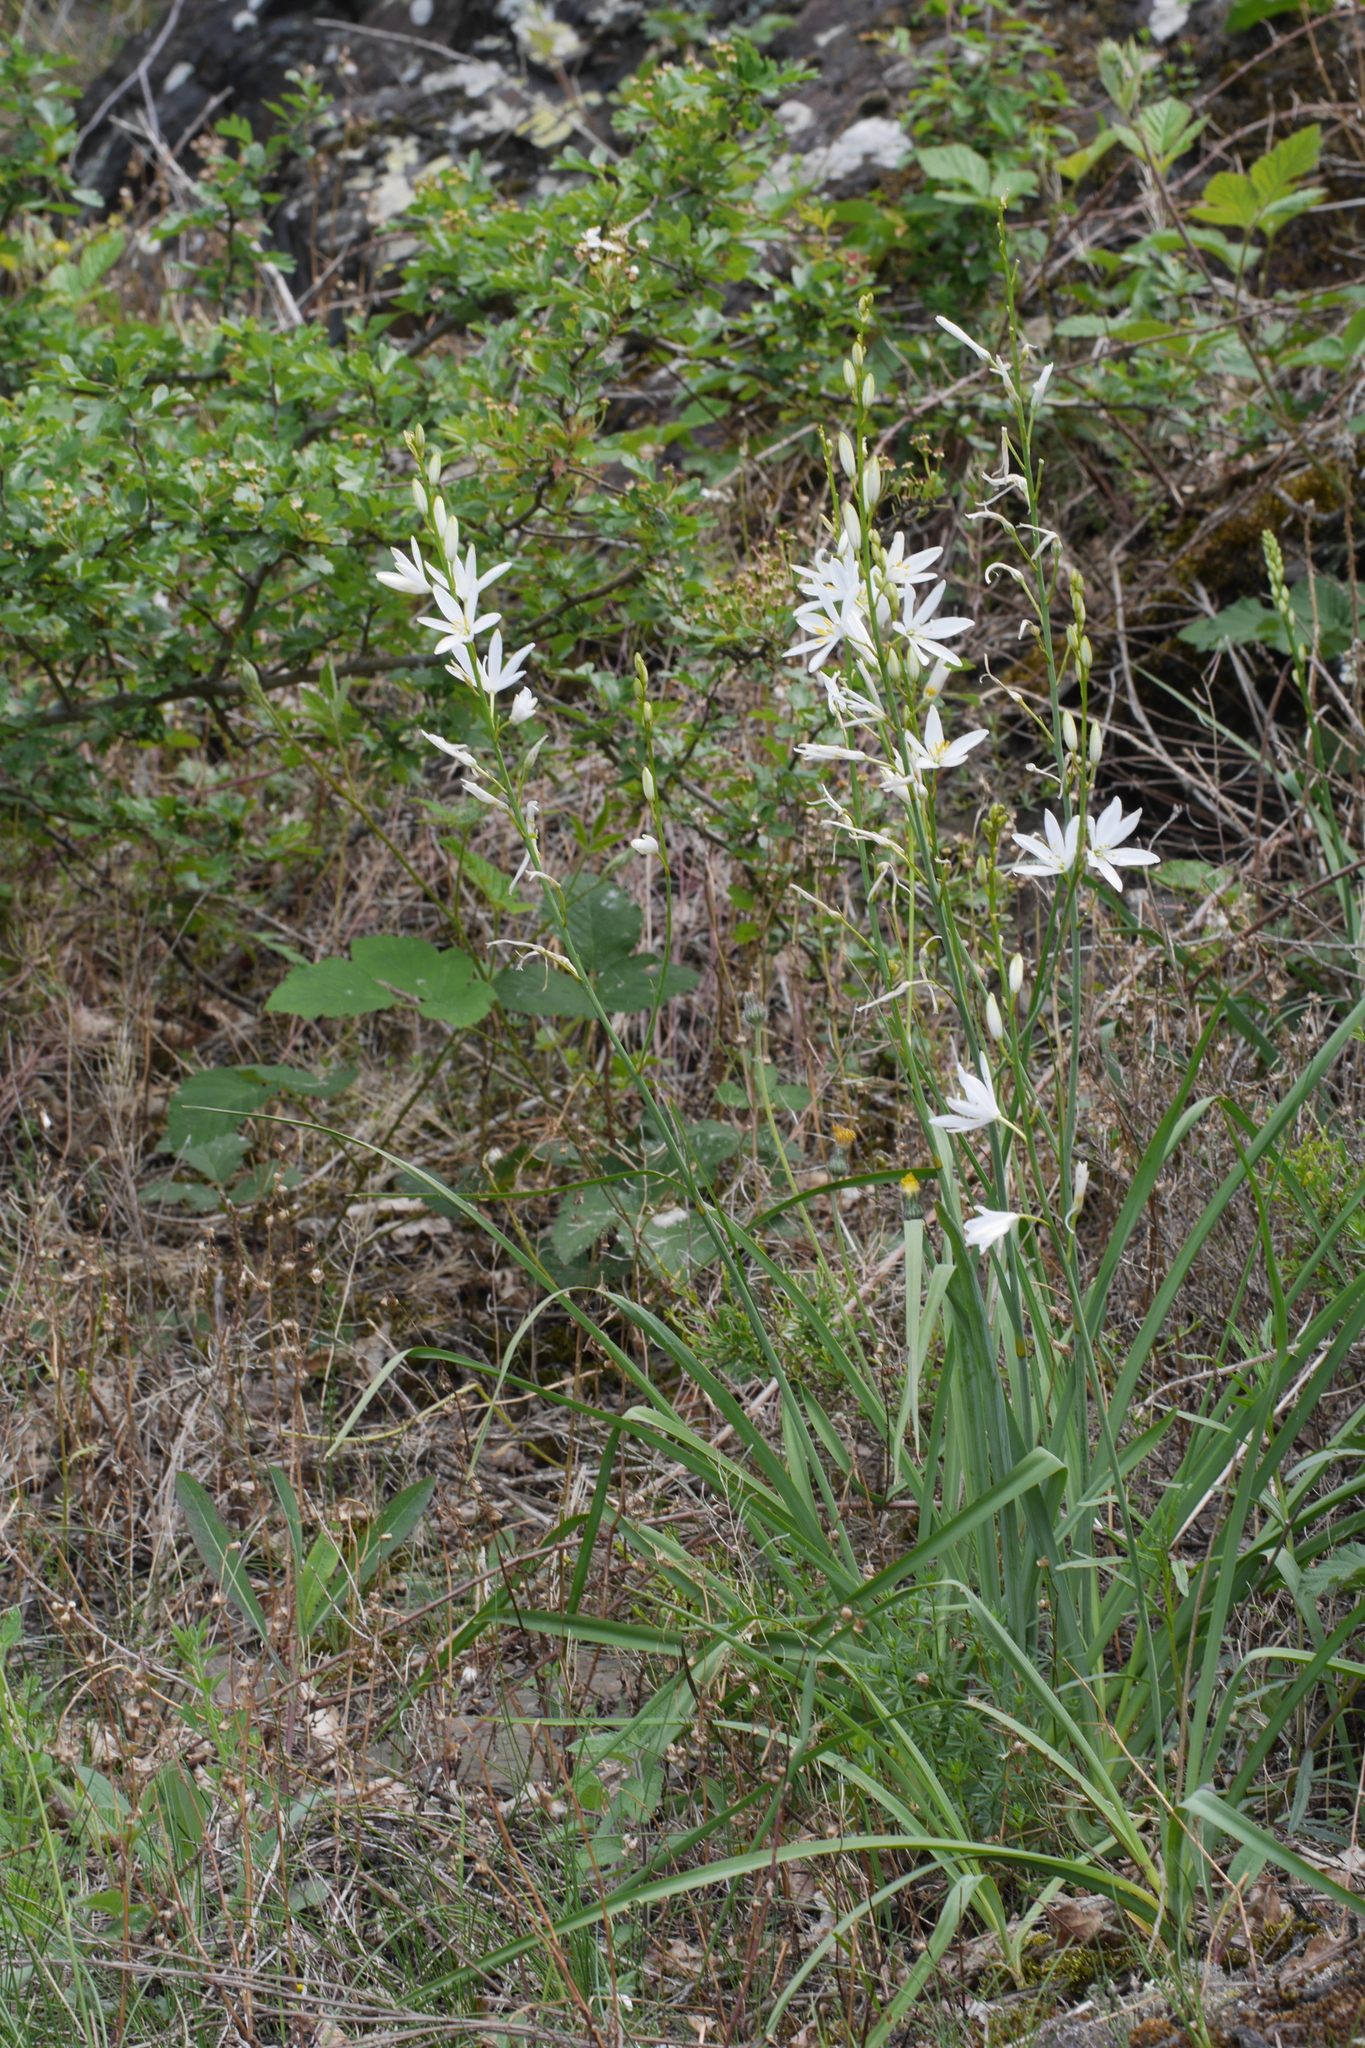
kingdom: Plantae
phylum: Tracheophyta
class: Liliopsida
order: Asparagales
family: Asparagaceae
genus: Anthericum
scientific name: Anthericum liliago
